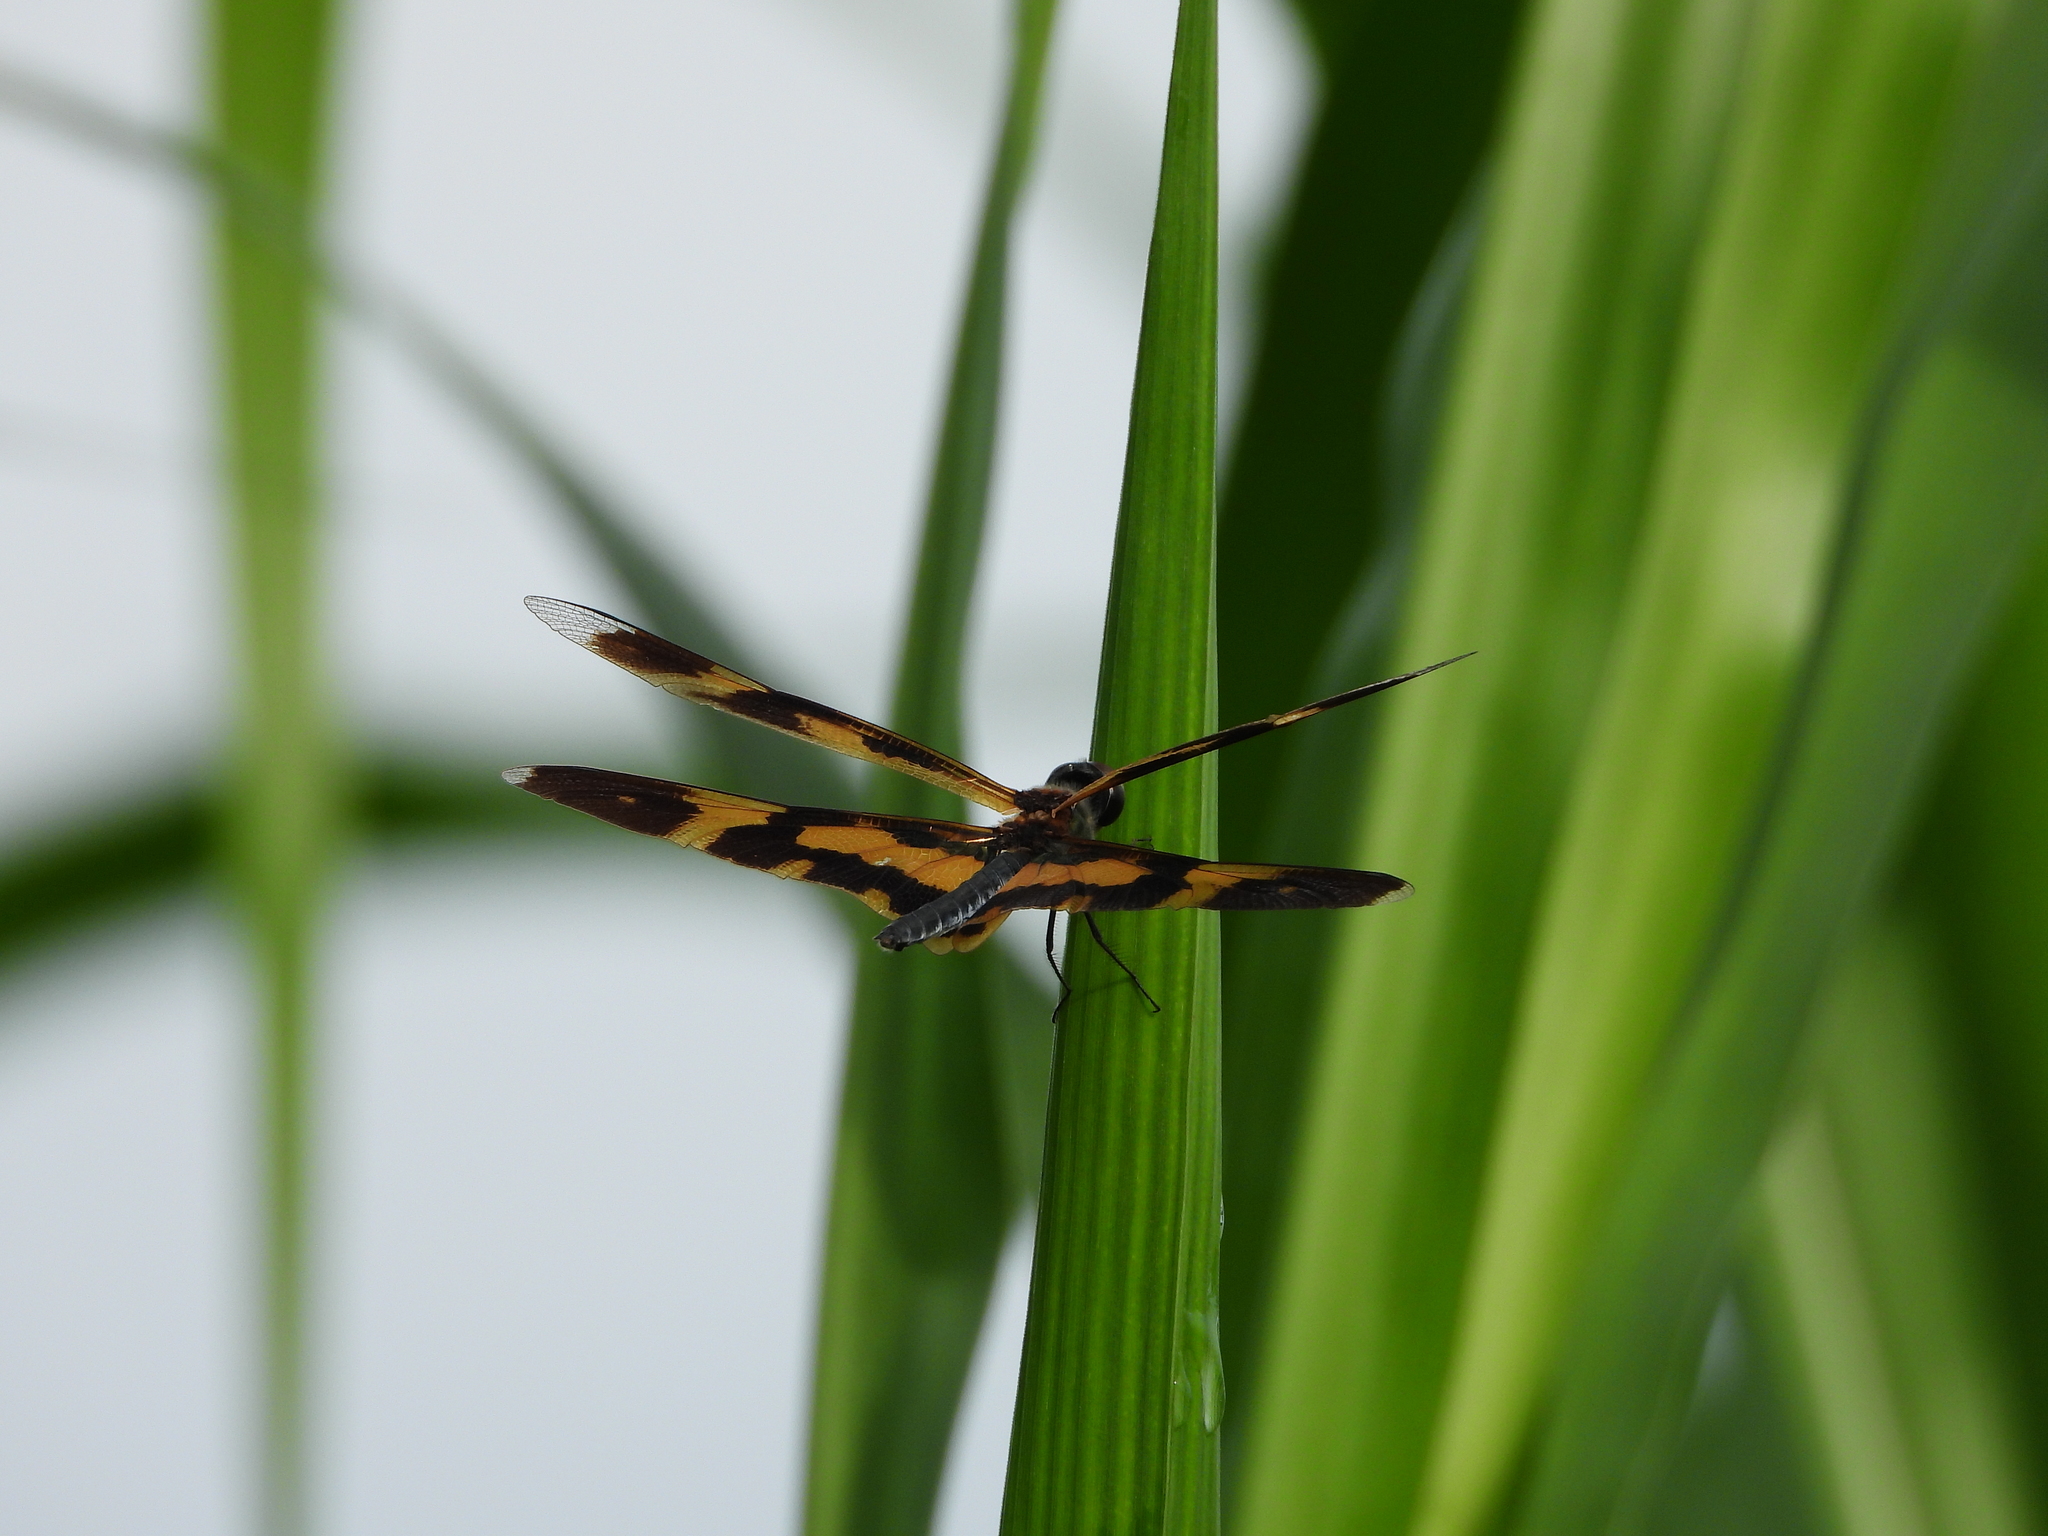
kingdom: Animalia
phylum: Arthropoda
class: Insecta
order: Odonata
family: Libellulidae
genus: Rhyothemis
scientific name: Rhyothemis variegata
